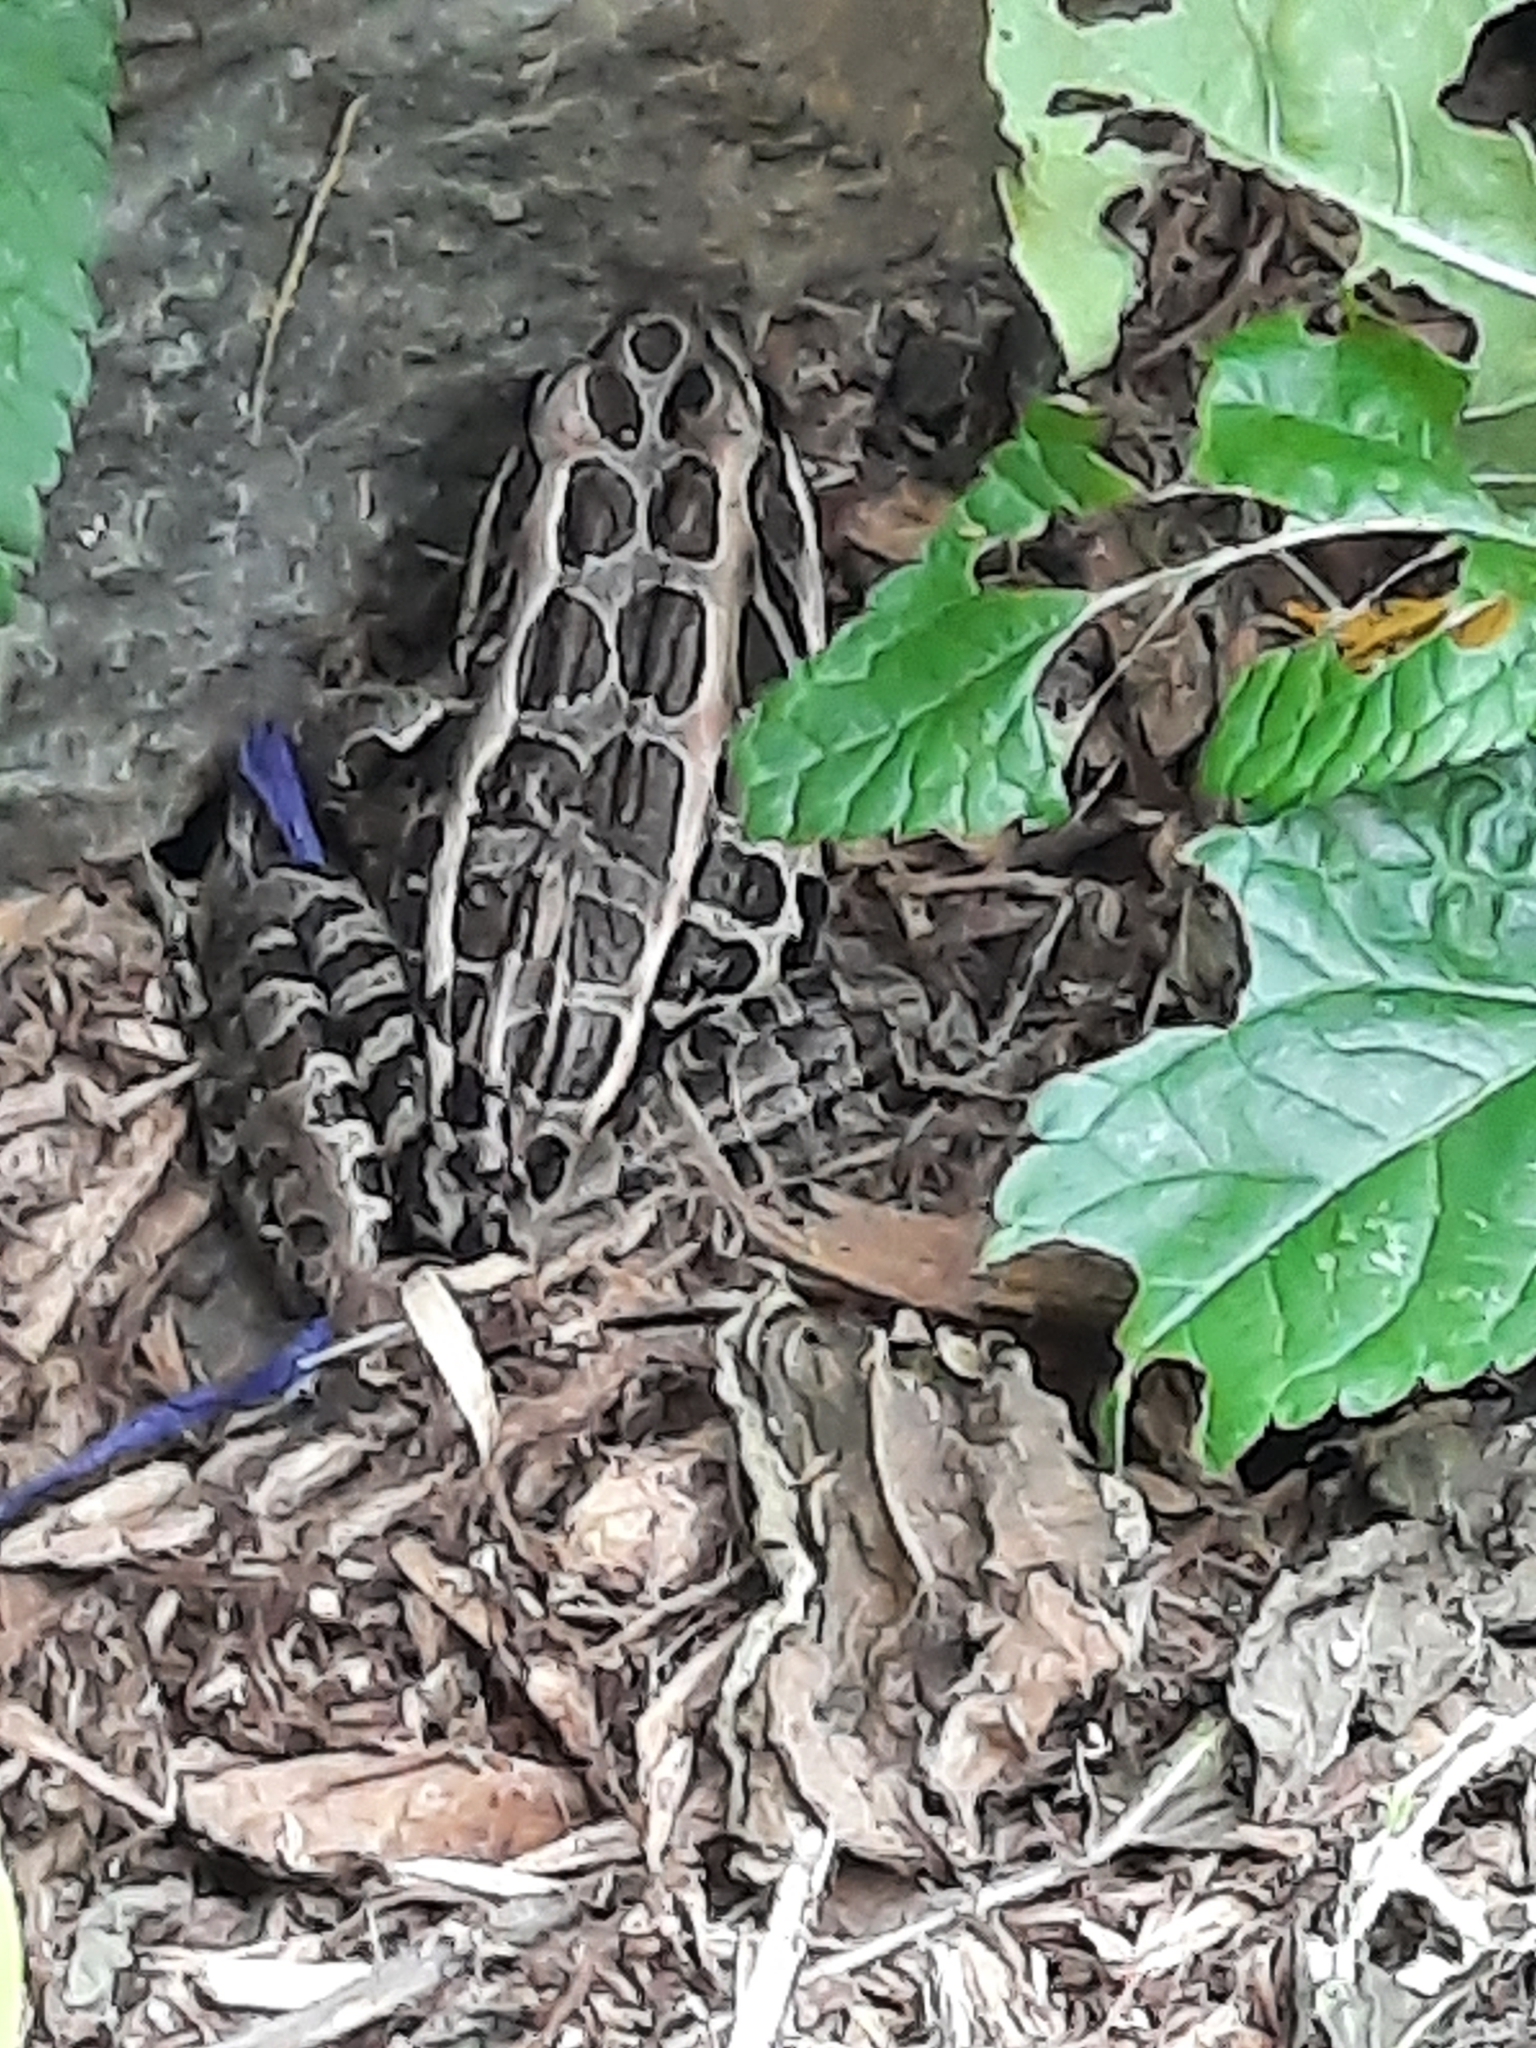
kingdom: Animalia
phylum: Chordata
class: Amphibia
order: Anura
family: Ranidae
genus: Lithobates
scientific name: Lithobates palustris
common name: Pickerel frog
